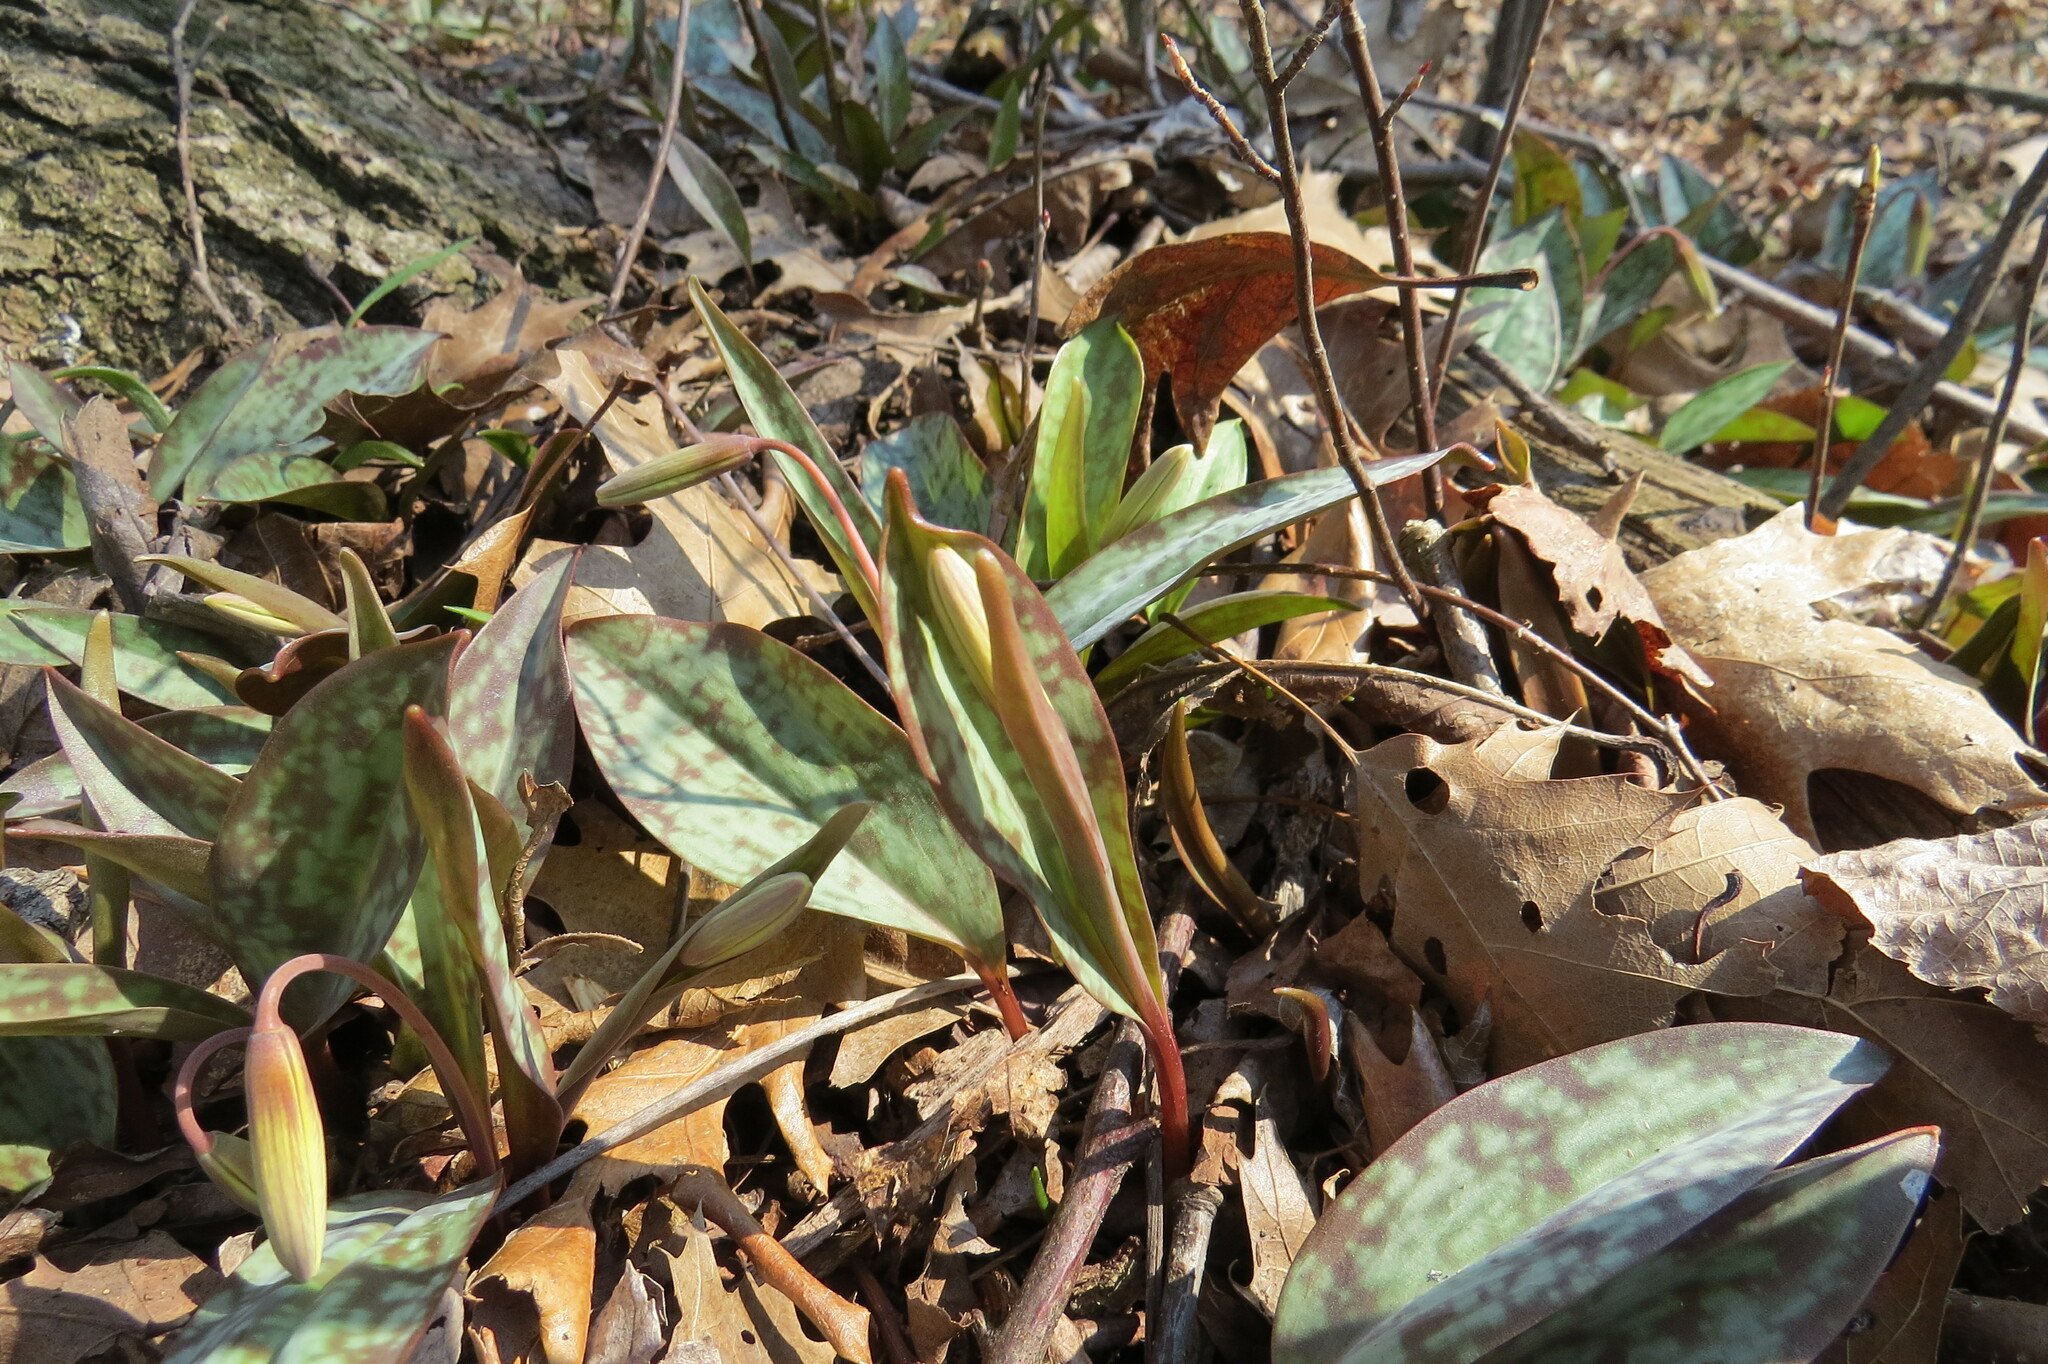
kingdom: Plantae
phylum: Tracheophyta
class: Liliopsida
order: Liliales
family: Liliaceae
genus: Erythronium
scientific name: Erythronium americanum
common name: Yellow adder's-tongue
